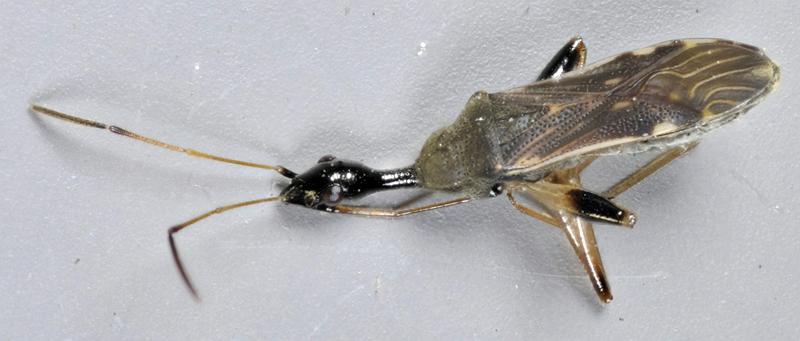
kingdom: Animalia
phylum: Arthropoda
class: Insecta
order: Hemiptera
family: Rhyparochromidae
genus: Myodocha
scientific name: Myodocha serripes
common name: Long-necked seed bug
